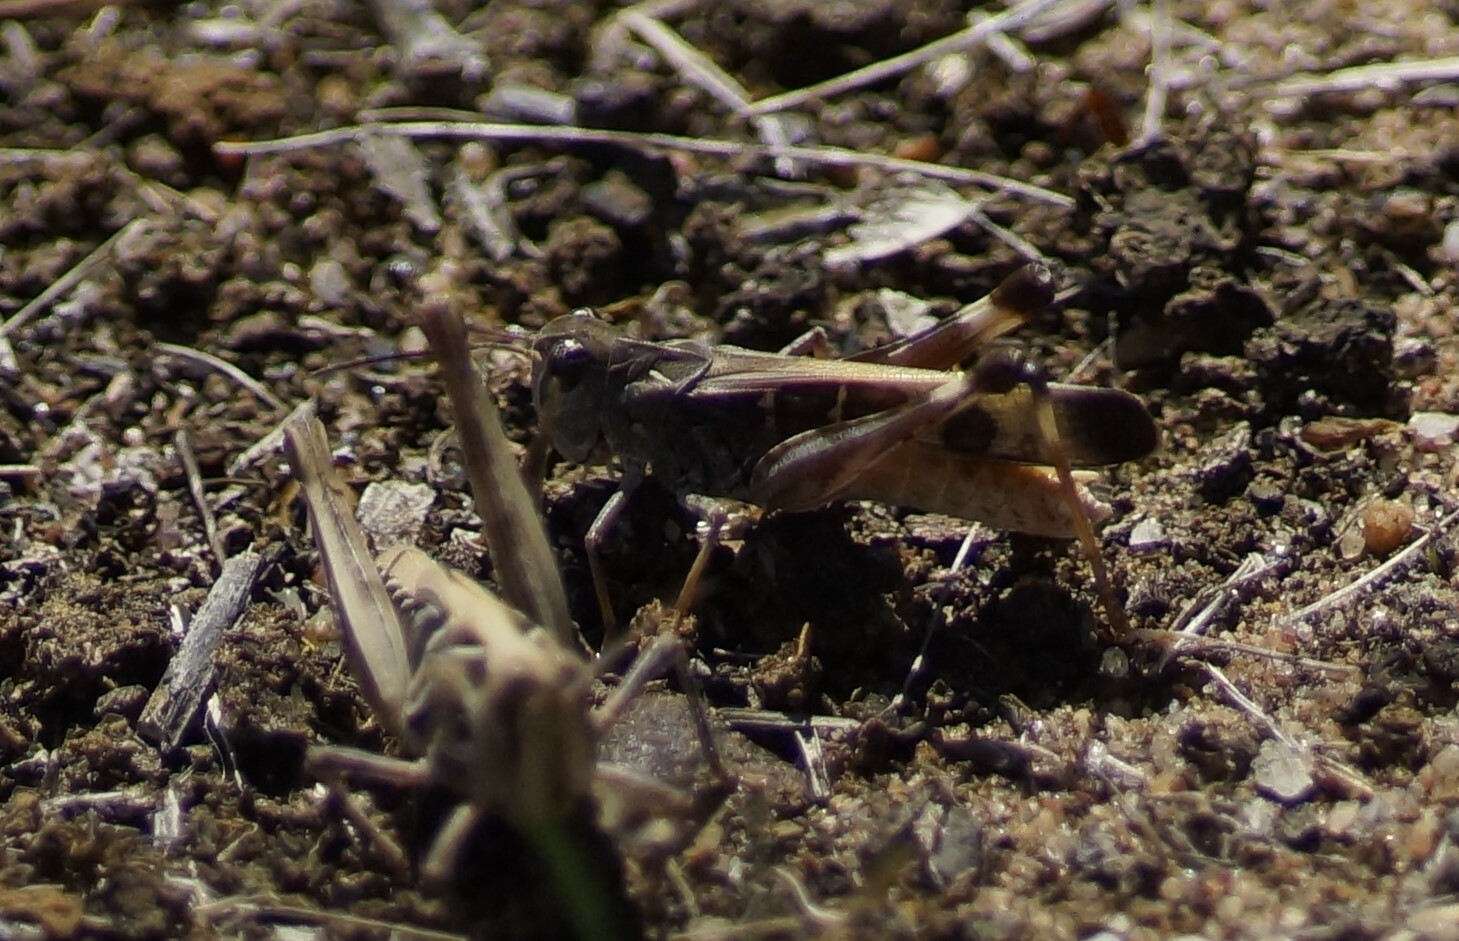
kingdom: Animalia
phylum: Arthropoda
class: Insecta
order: Orthoptera
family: Acrididae
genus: Oedaleus
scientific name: Oedaleus australis
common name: Eastern oedaleus
